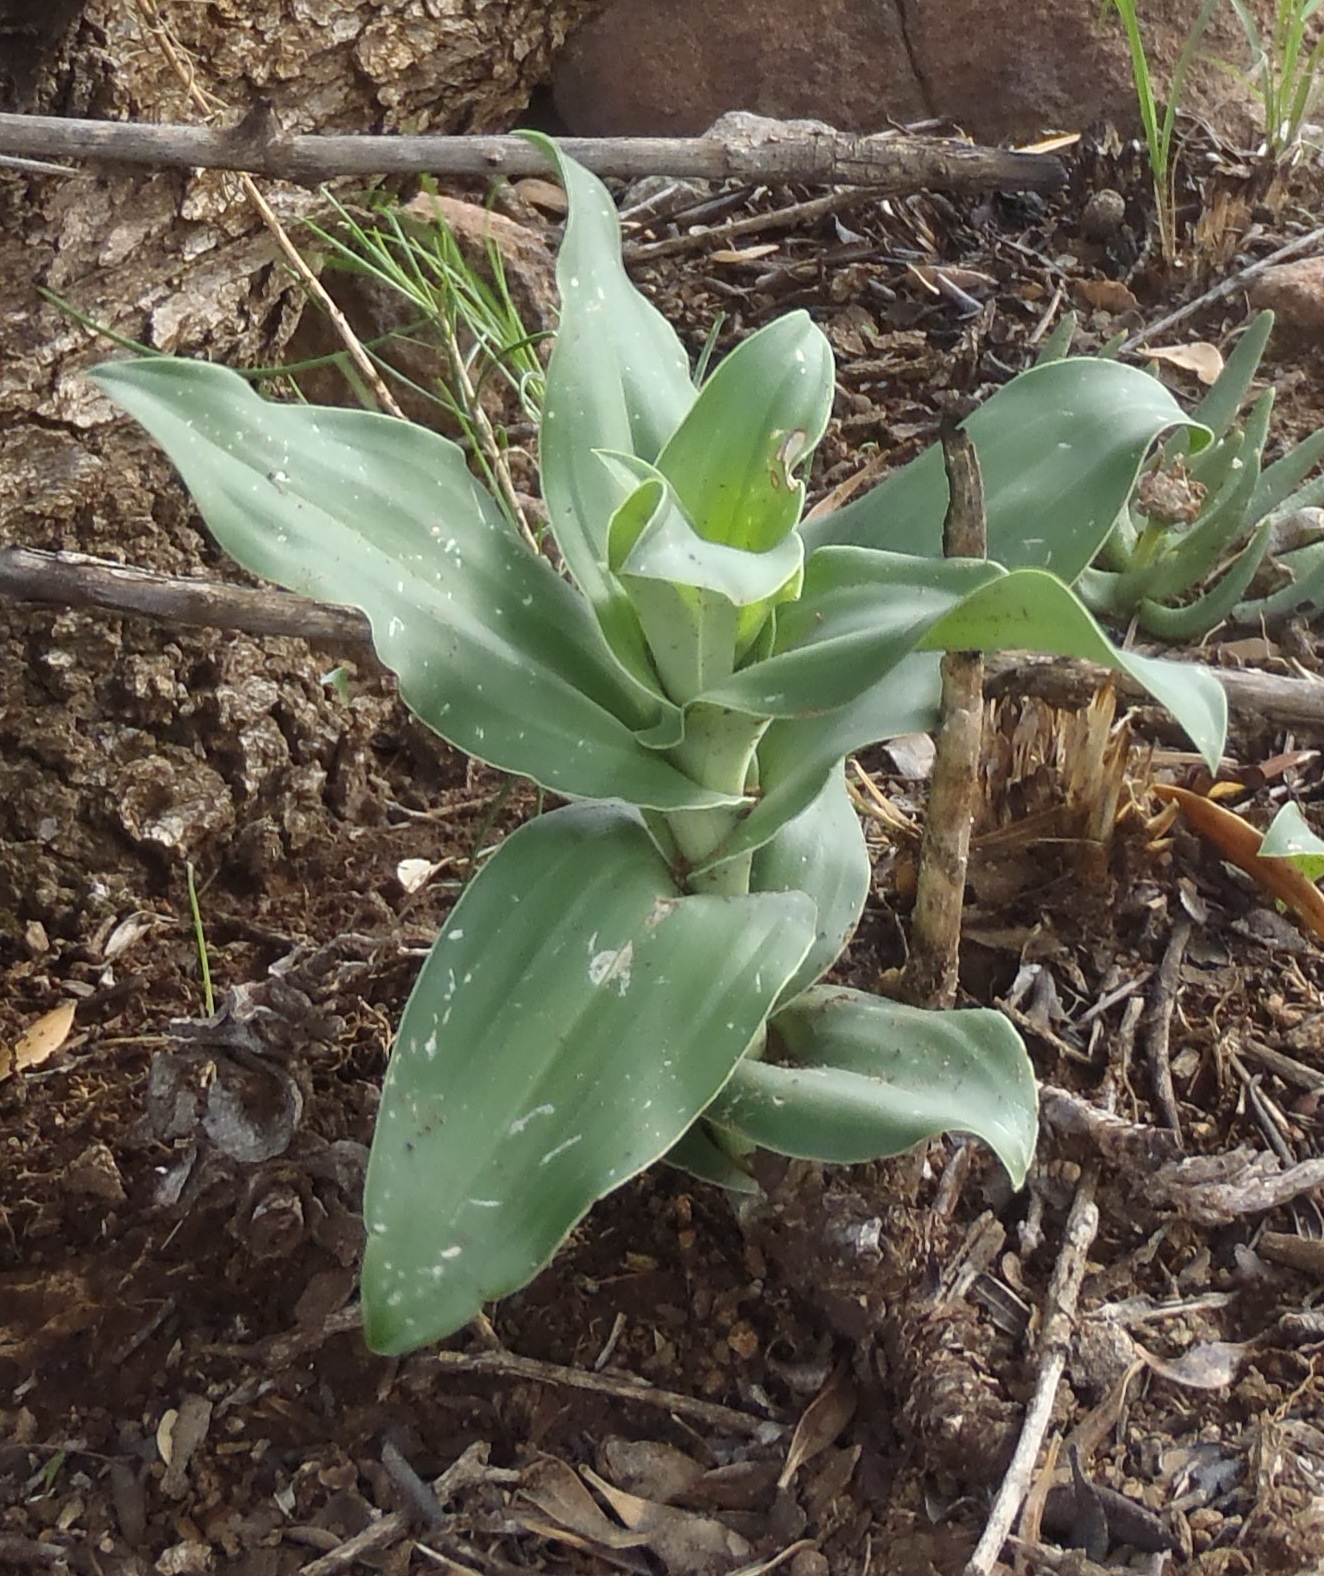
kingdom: Plantae
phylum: Tracheophyta
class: Liliopsida
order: Asparagales
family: Orchidaceae
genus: Bonatea
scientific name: Bonatea antennifera
